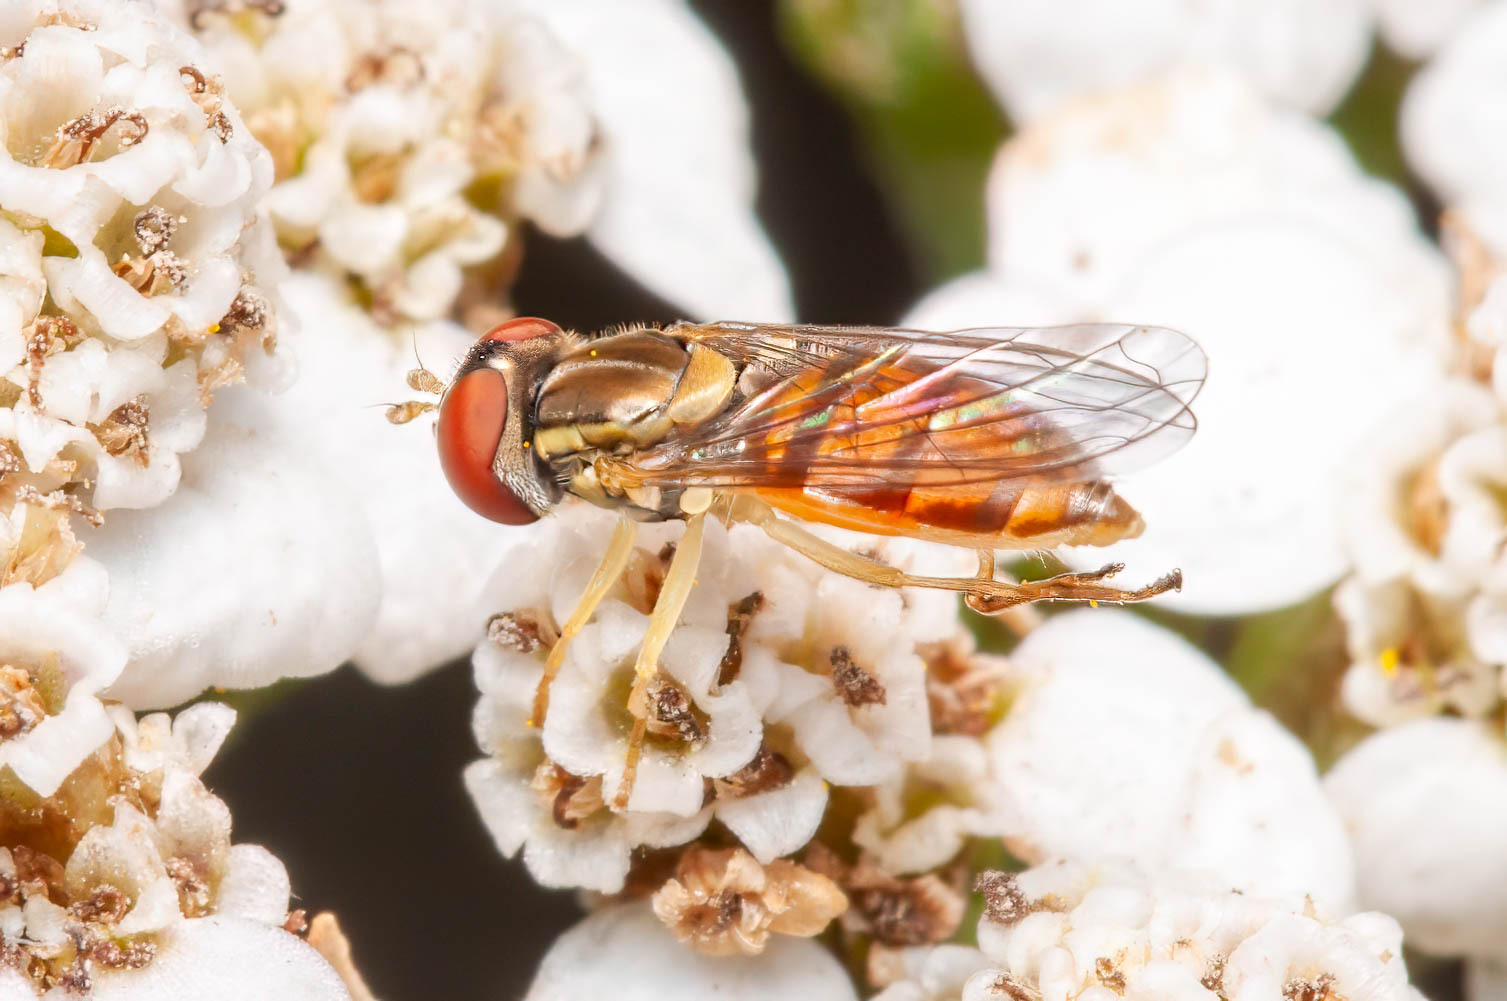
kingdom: Animalia
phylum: Arthropoda
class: Insecta
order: Diptera
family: Syrphidae
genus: Toxomerus
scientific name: Toxomerus marginatus
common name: Syrphid fly
